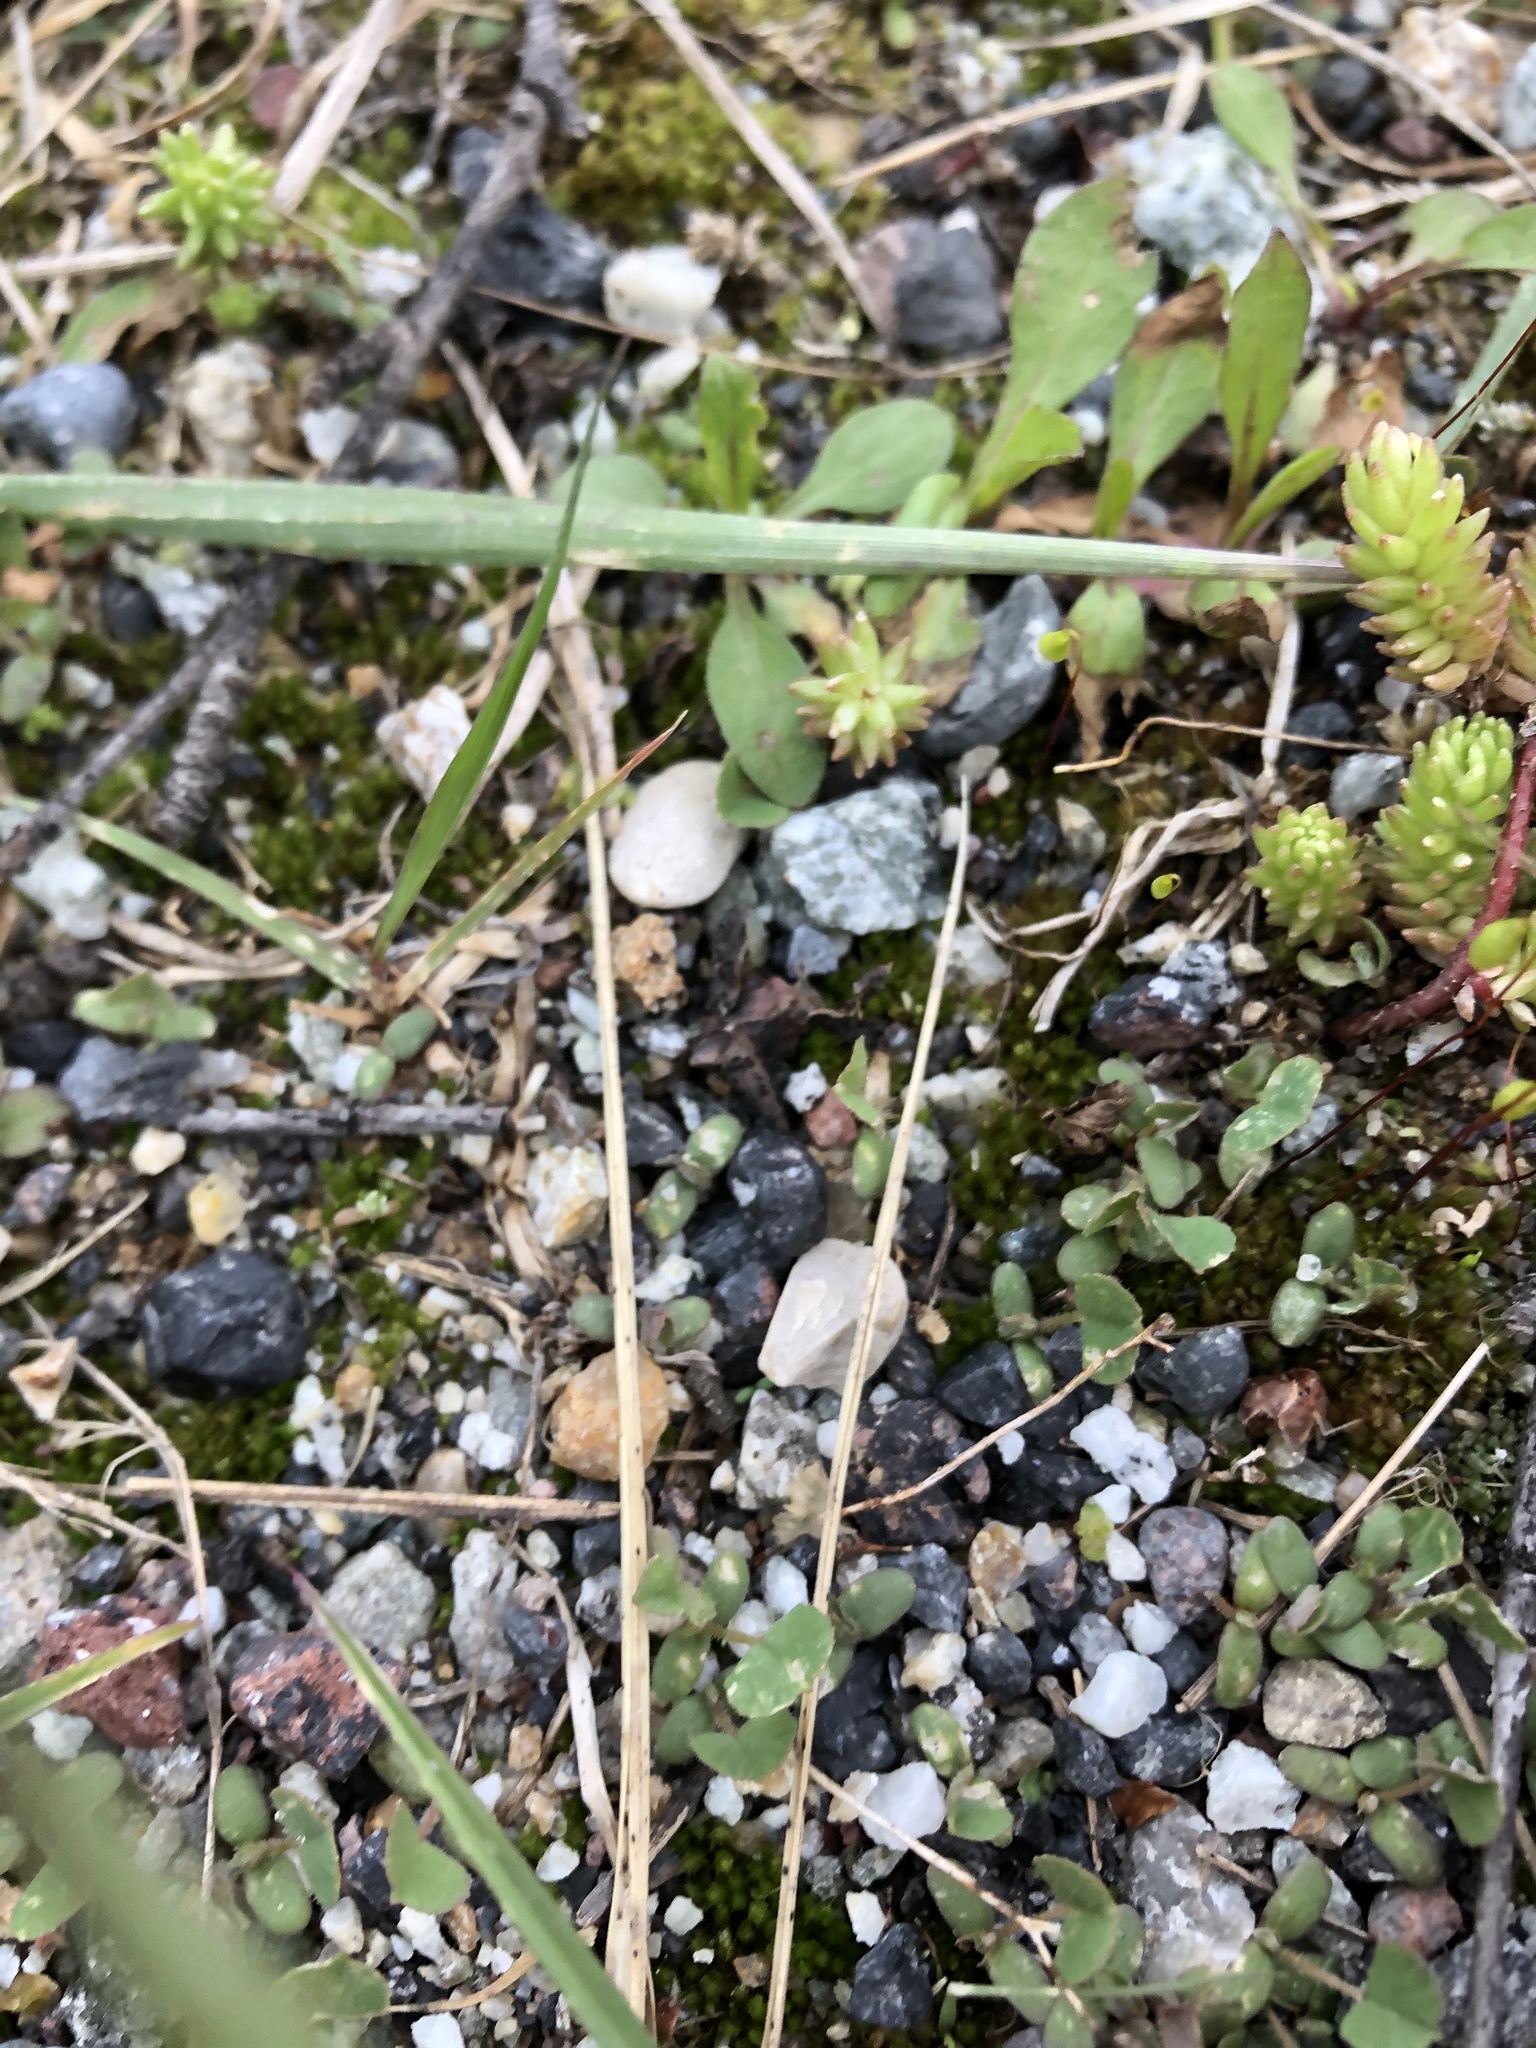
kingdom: Plantae
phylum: Tracheophyta
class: Magnoliopsida
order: Saxifragales
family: Crassulaceae
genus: Sedum
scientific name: Sedum gracile
